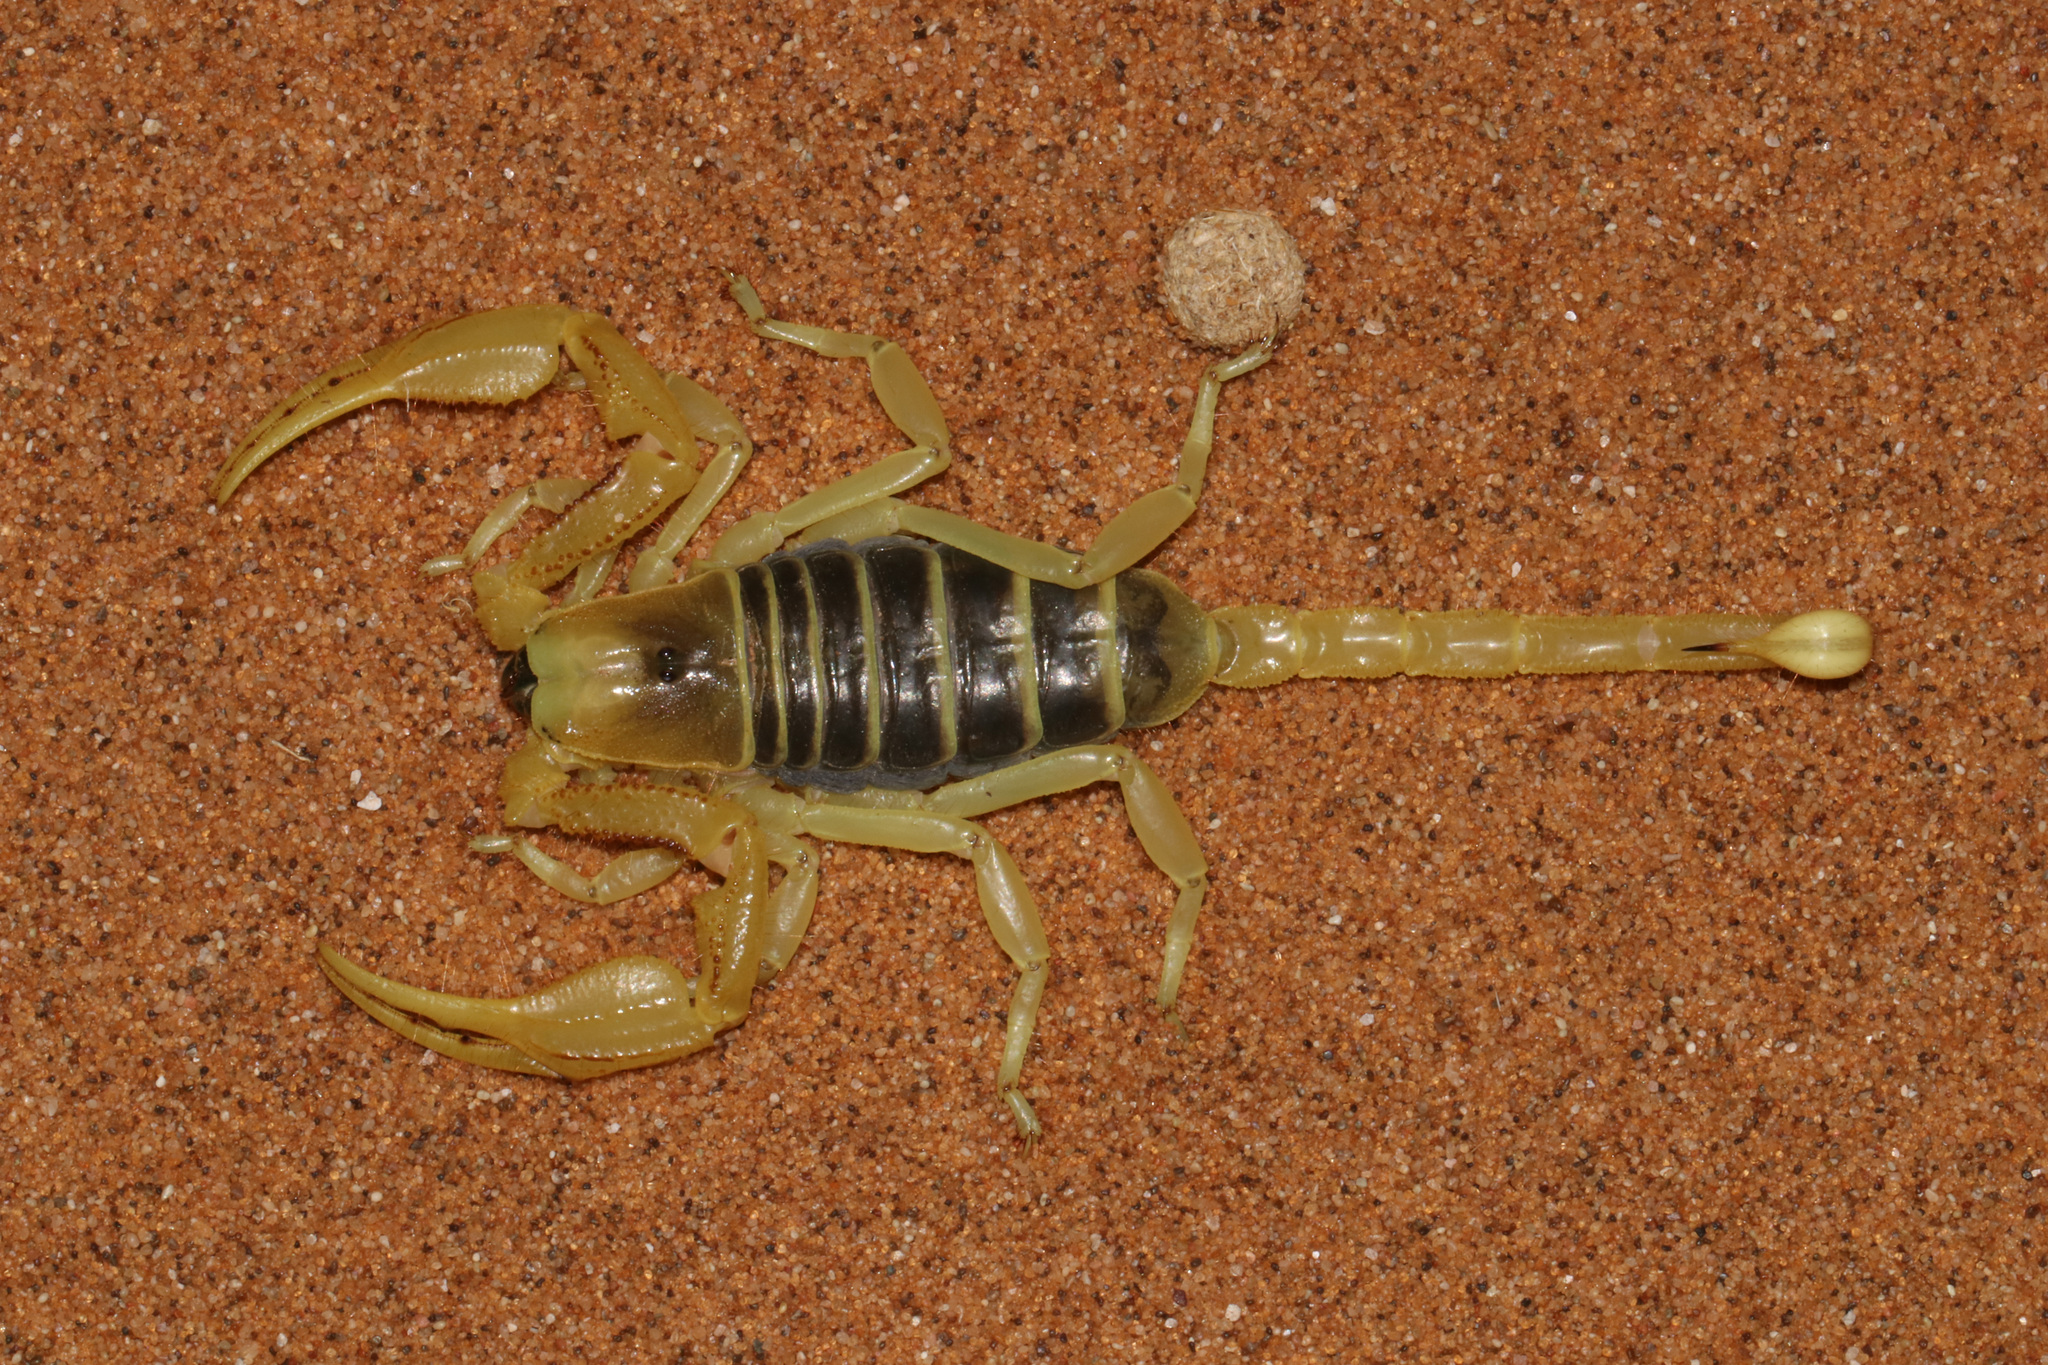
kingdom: Animalia
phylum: Arthropoda
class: Arachnida
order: Scorpiones
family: Scorpionidae
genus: Opistophthalmus
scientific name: Opistophthalmus flavescens
